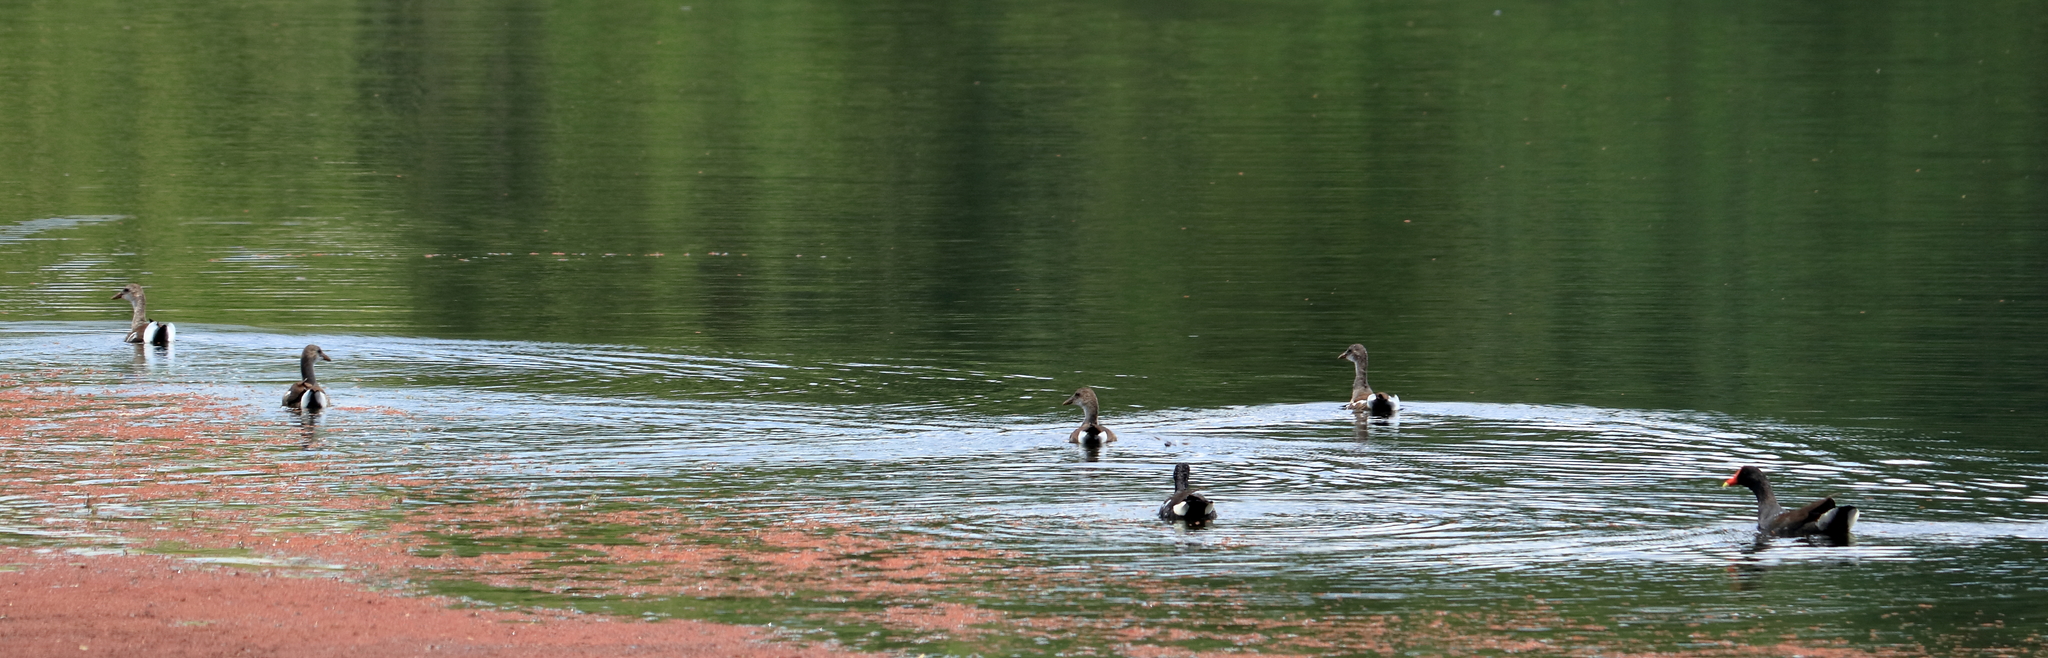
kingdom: Animalia
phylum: Chordata
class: Aves
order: Gruiformes
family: Rallidae
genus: Gallinula
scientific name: Gallinula chloropus
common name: Common moorhen
